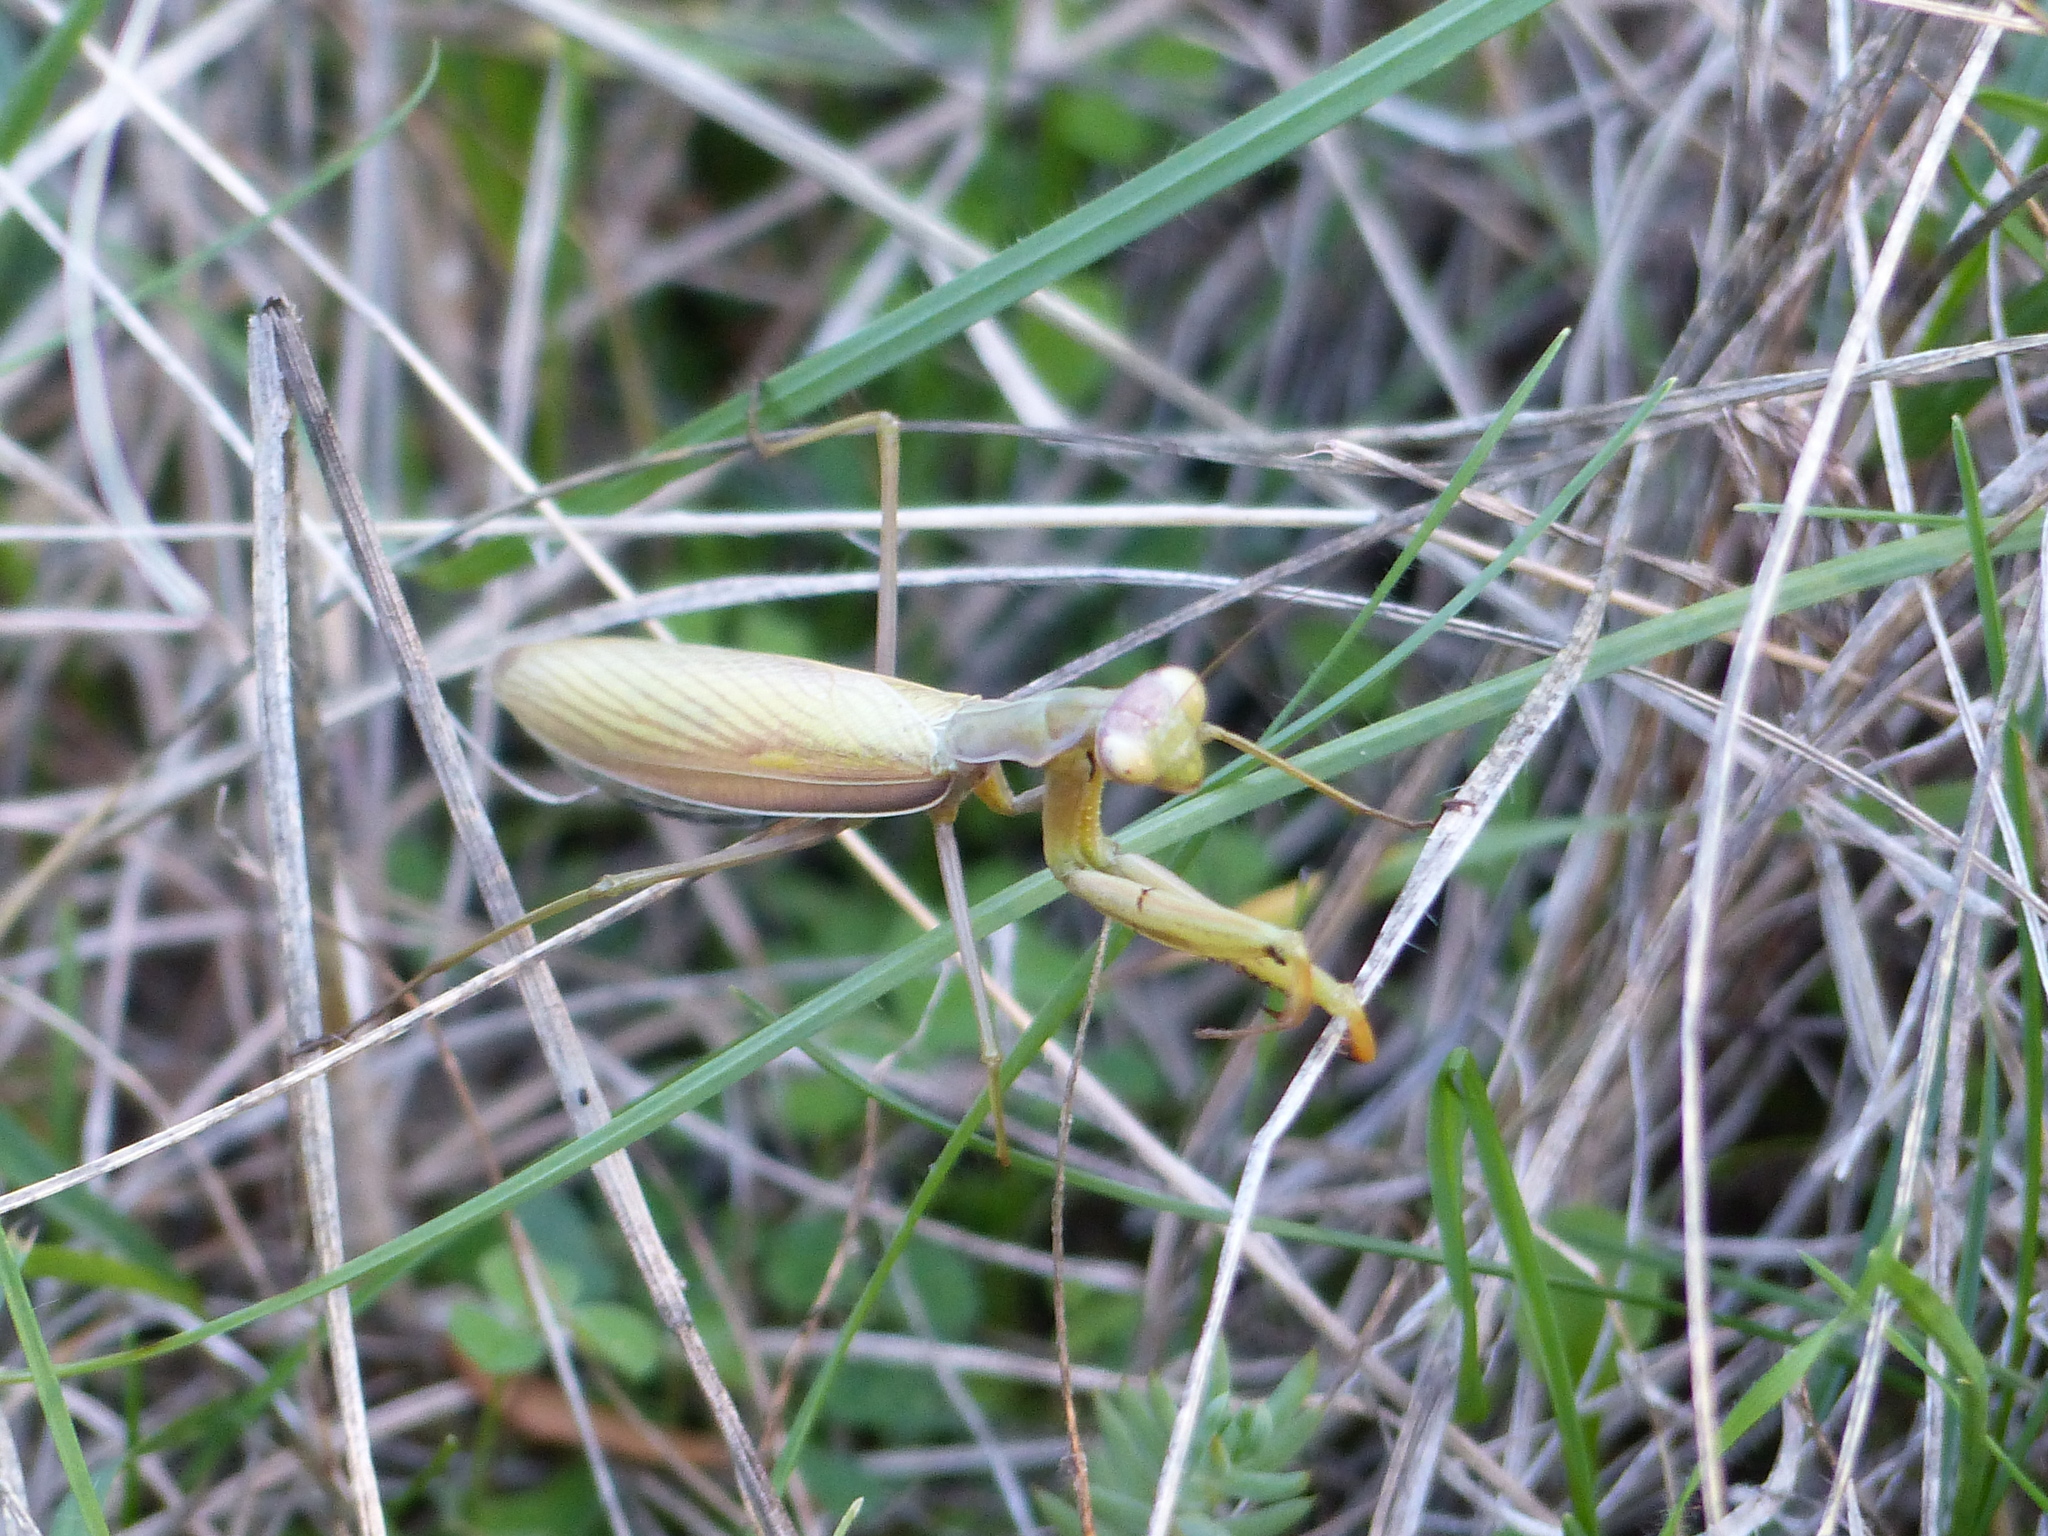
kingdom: Animalia
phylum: Arthropoda
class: Insecta
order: Mantodea
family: Mantidae
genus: Mantis
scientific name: Mantis religiosa
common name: Praying mantis
